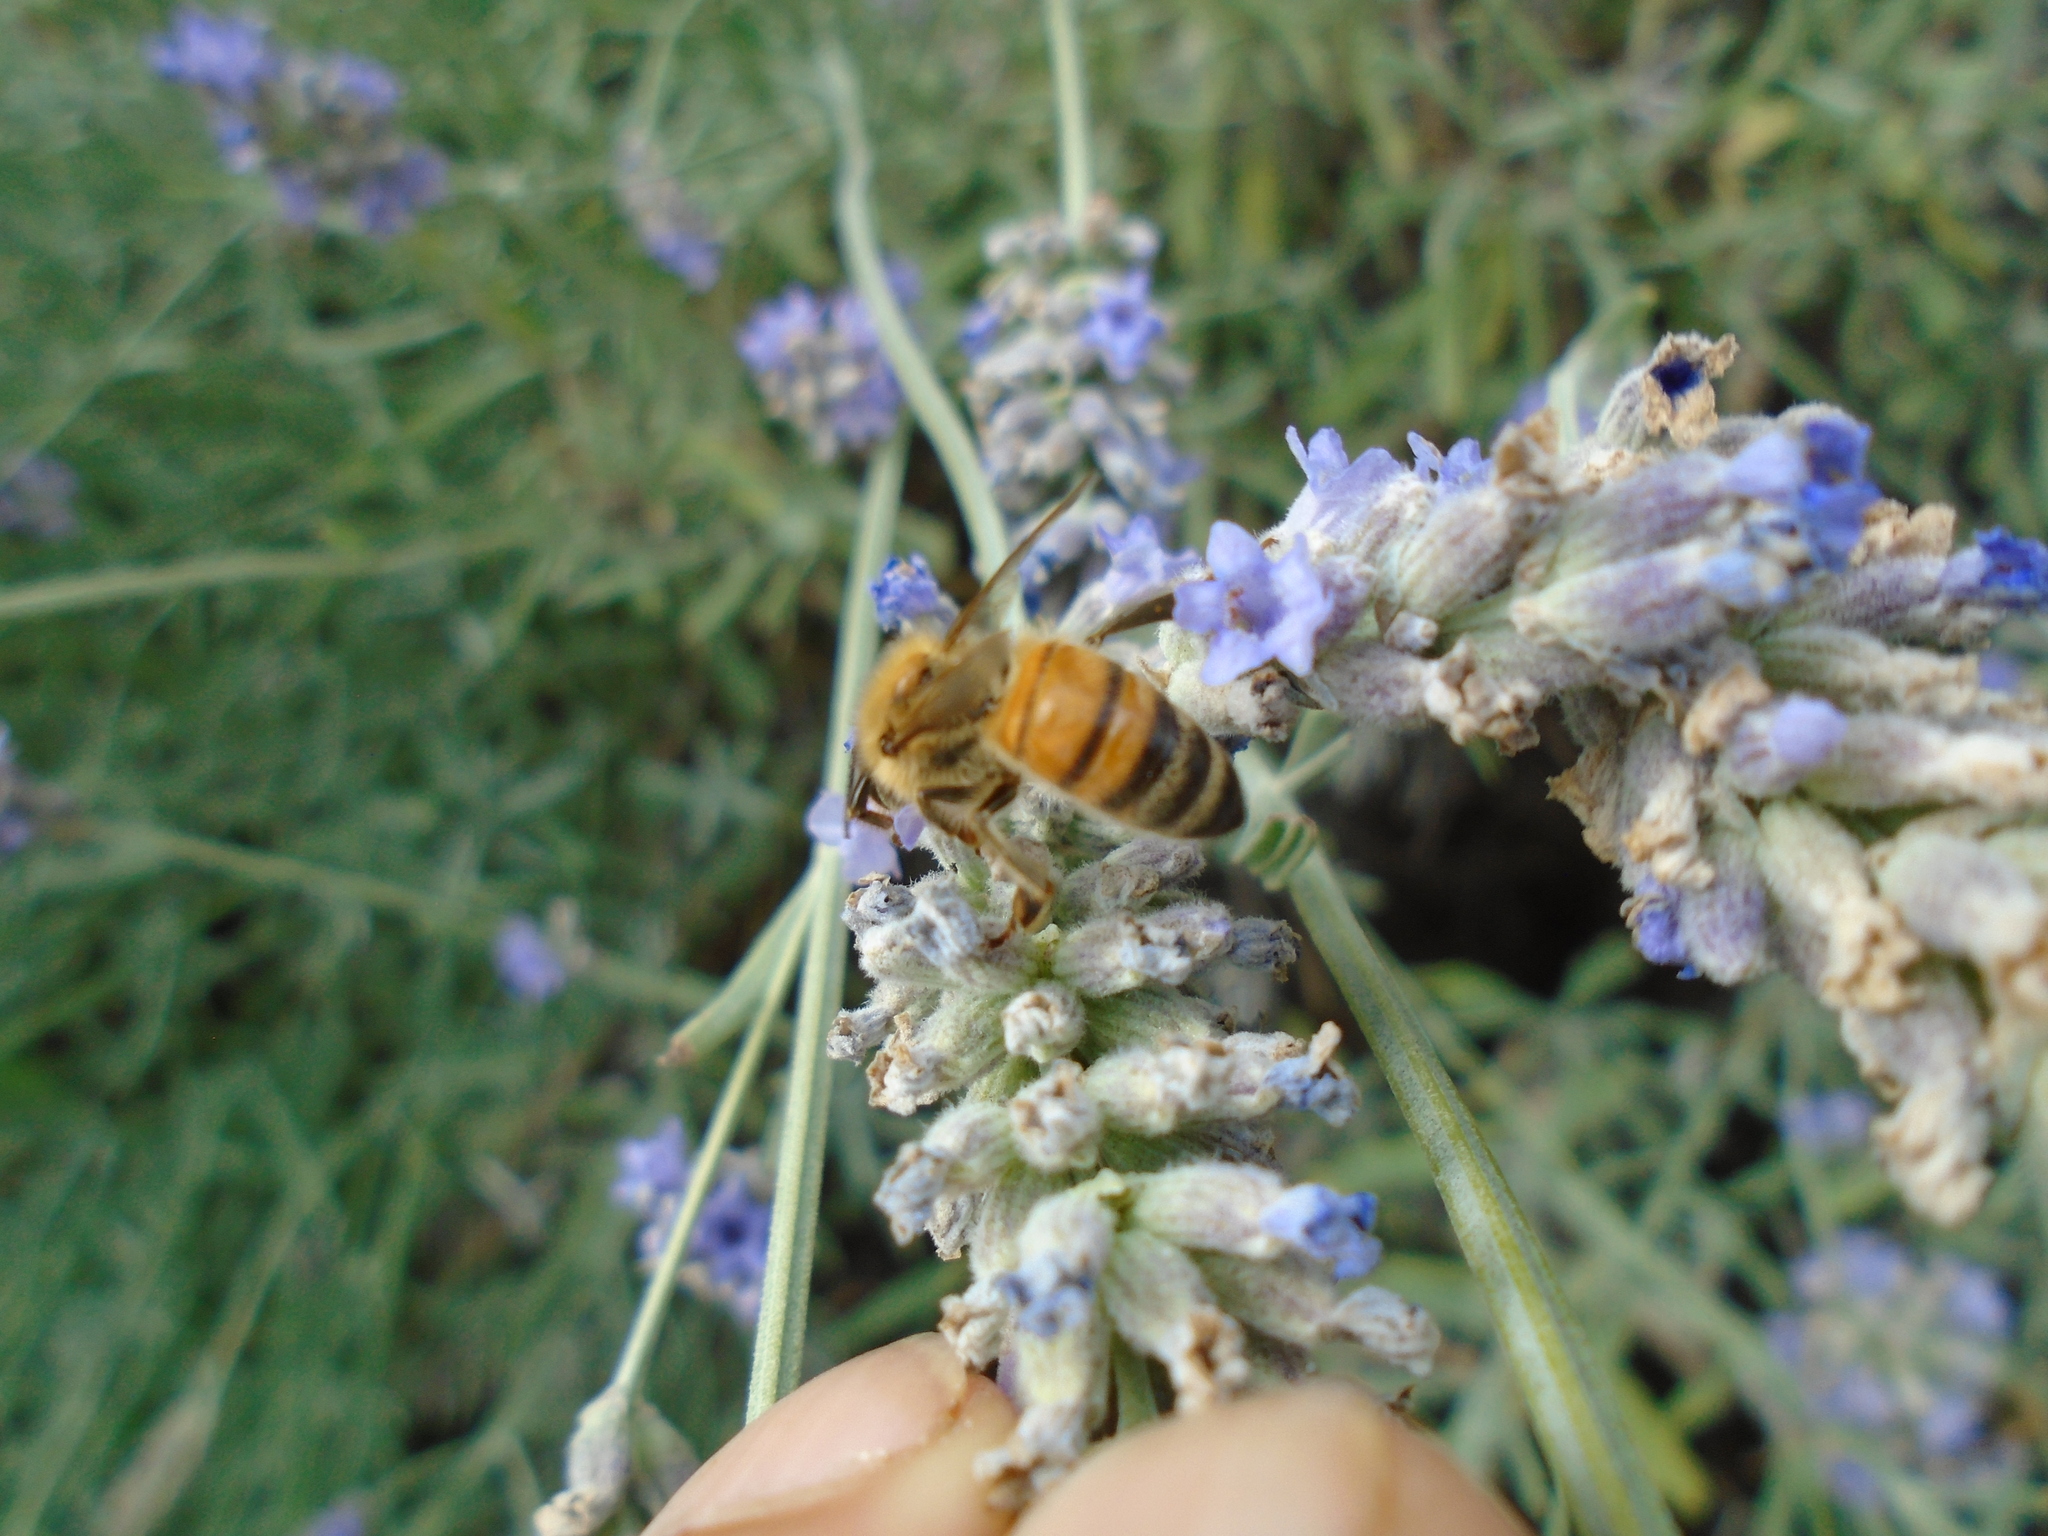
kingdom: Animalia
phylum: Arthropoda
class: Insecta
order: Hymenoptera
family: Apidae
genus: Apis
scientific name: Apis mellifera
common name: Honey bee
